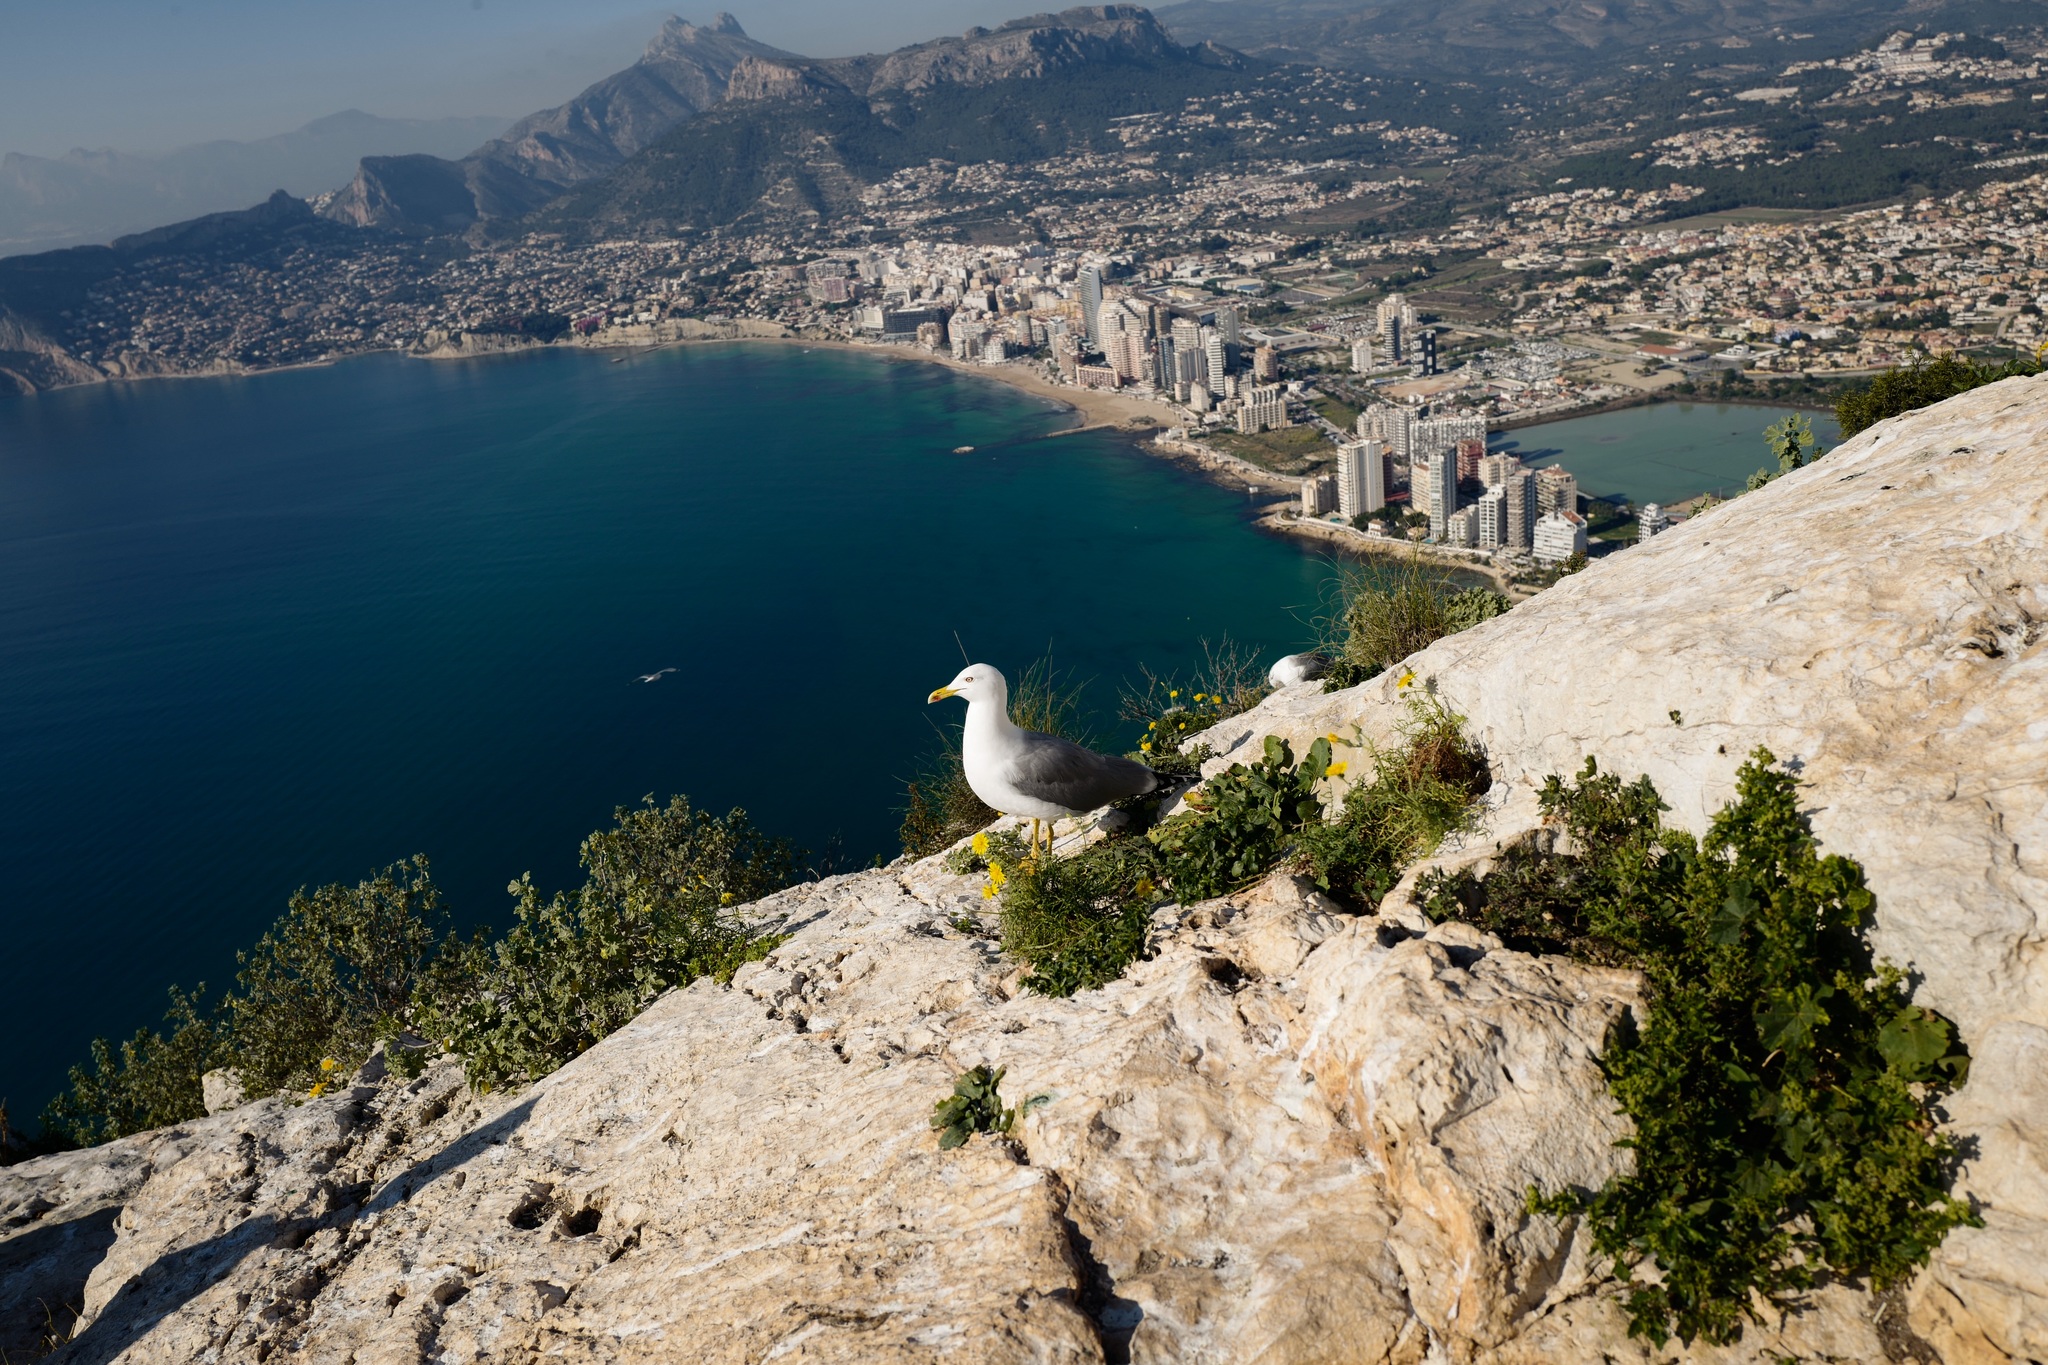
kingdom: Animalia
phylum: Chordata
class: Aves
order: Charadriiformes
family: Laridae
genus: Larus
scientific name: Larus michahellis
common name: Yellow-legged gull
